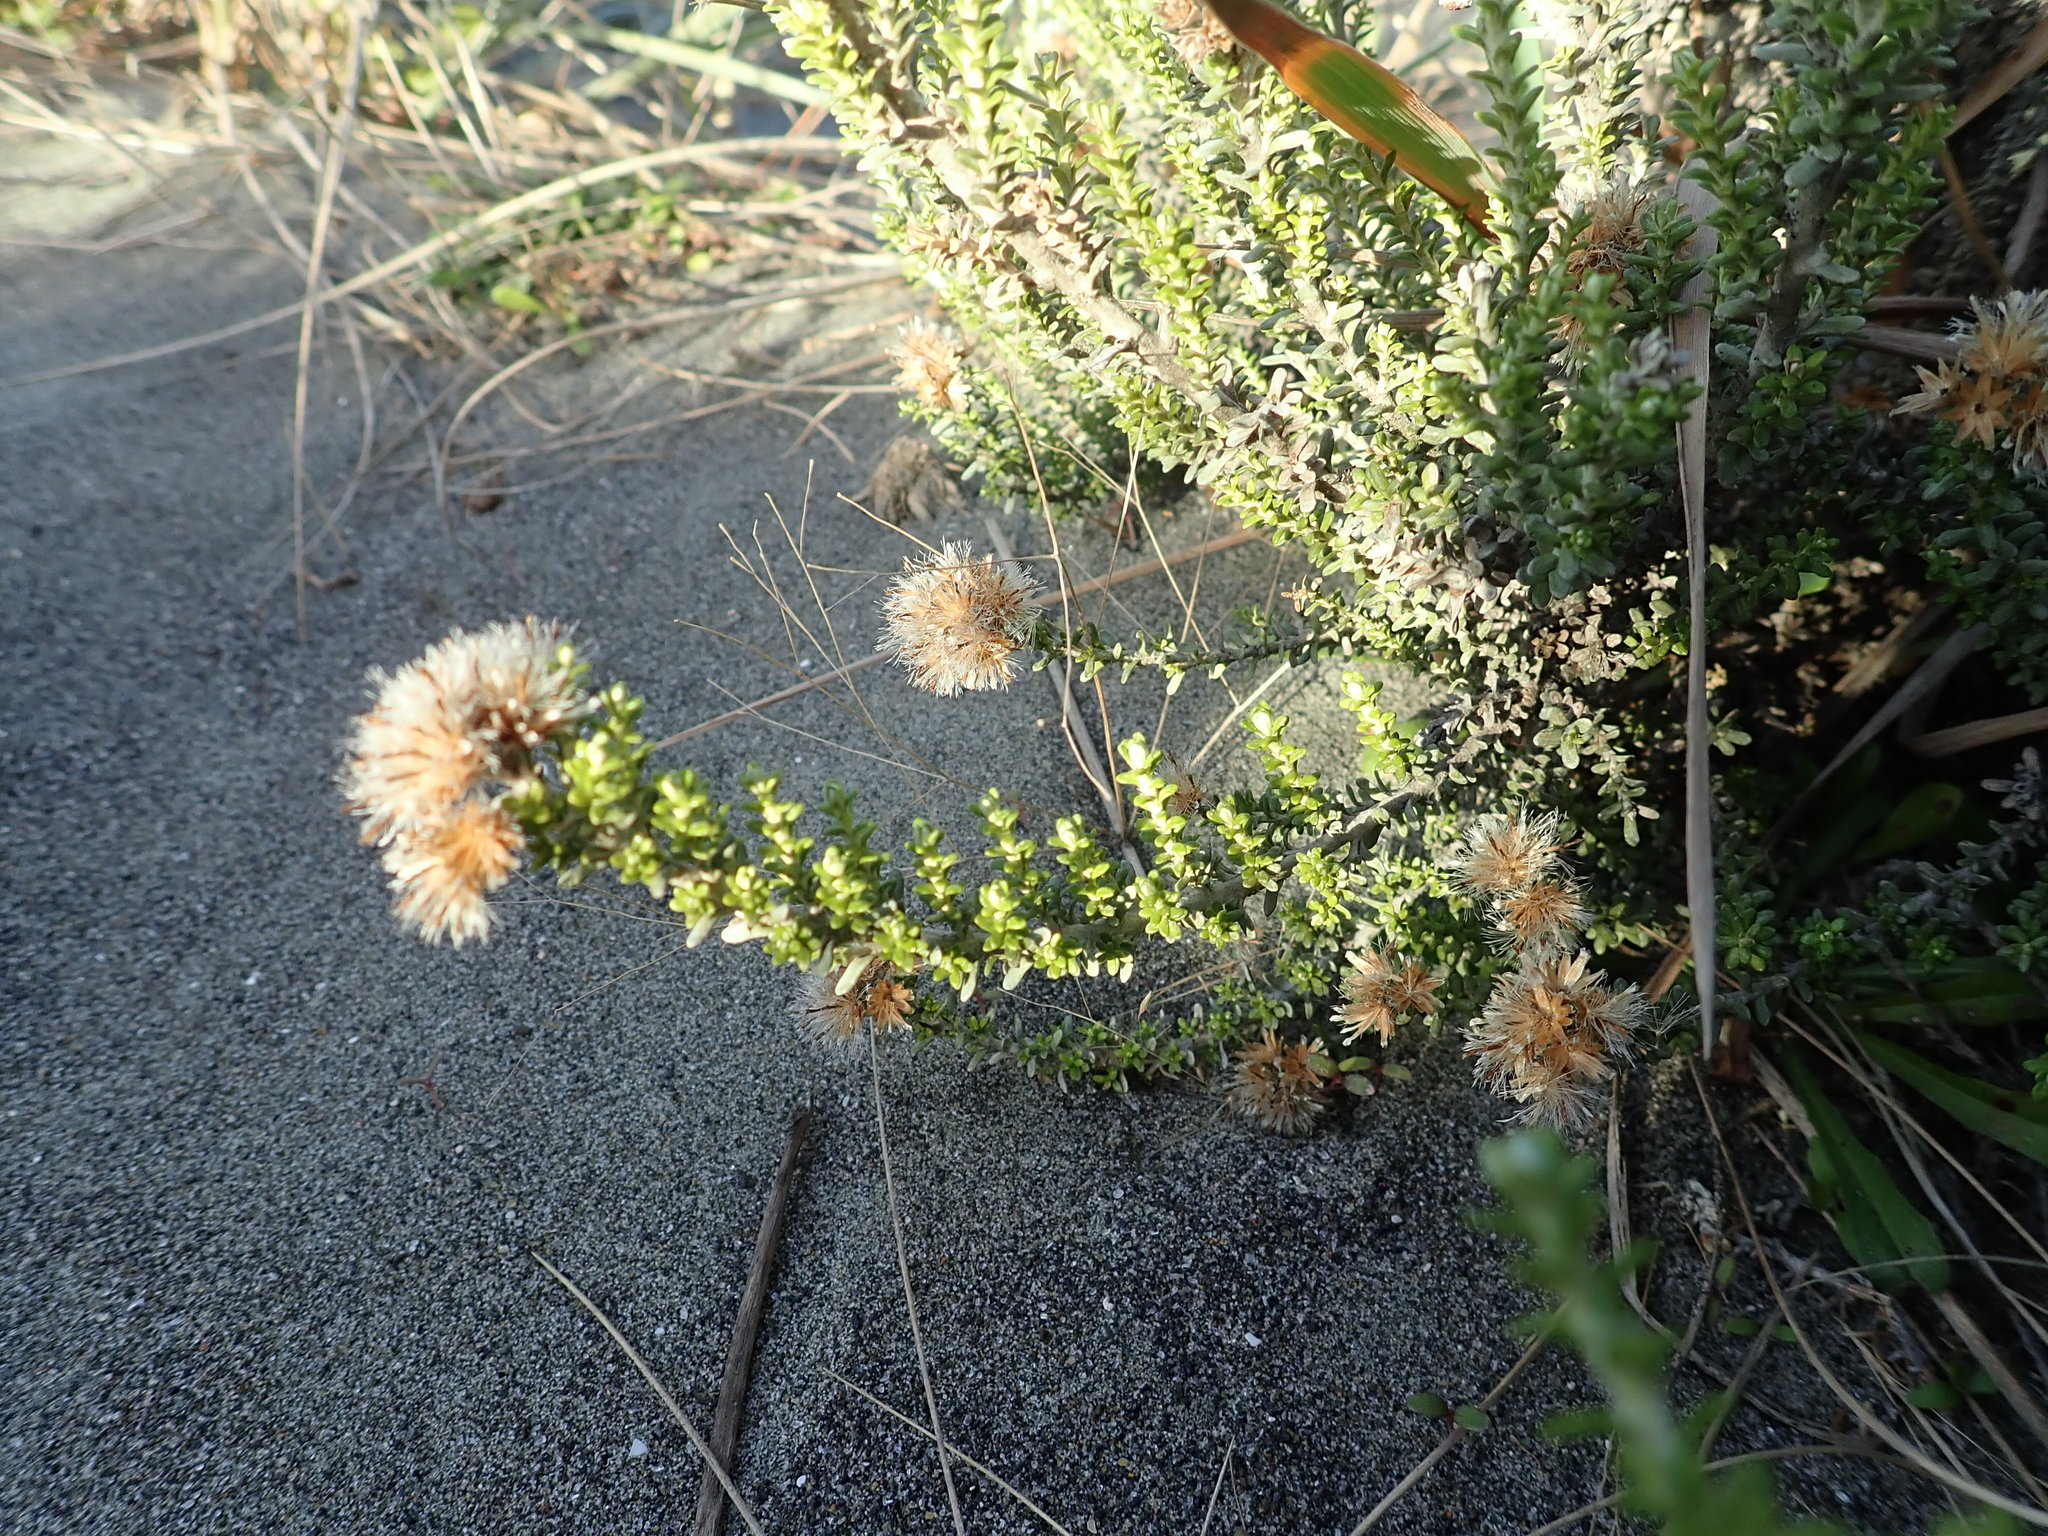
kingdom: Plantae
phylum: Tracheophyta
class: Magnoliopsida
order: Asterales
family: Asteraceae
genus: Ozothamnus
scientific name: Ozothamnus leptophyllus
